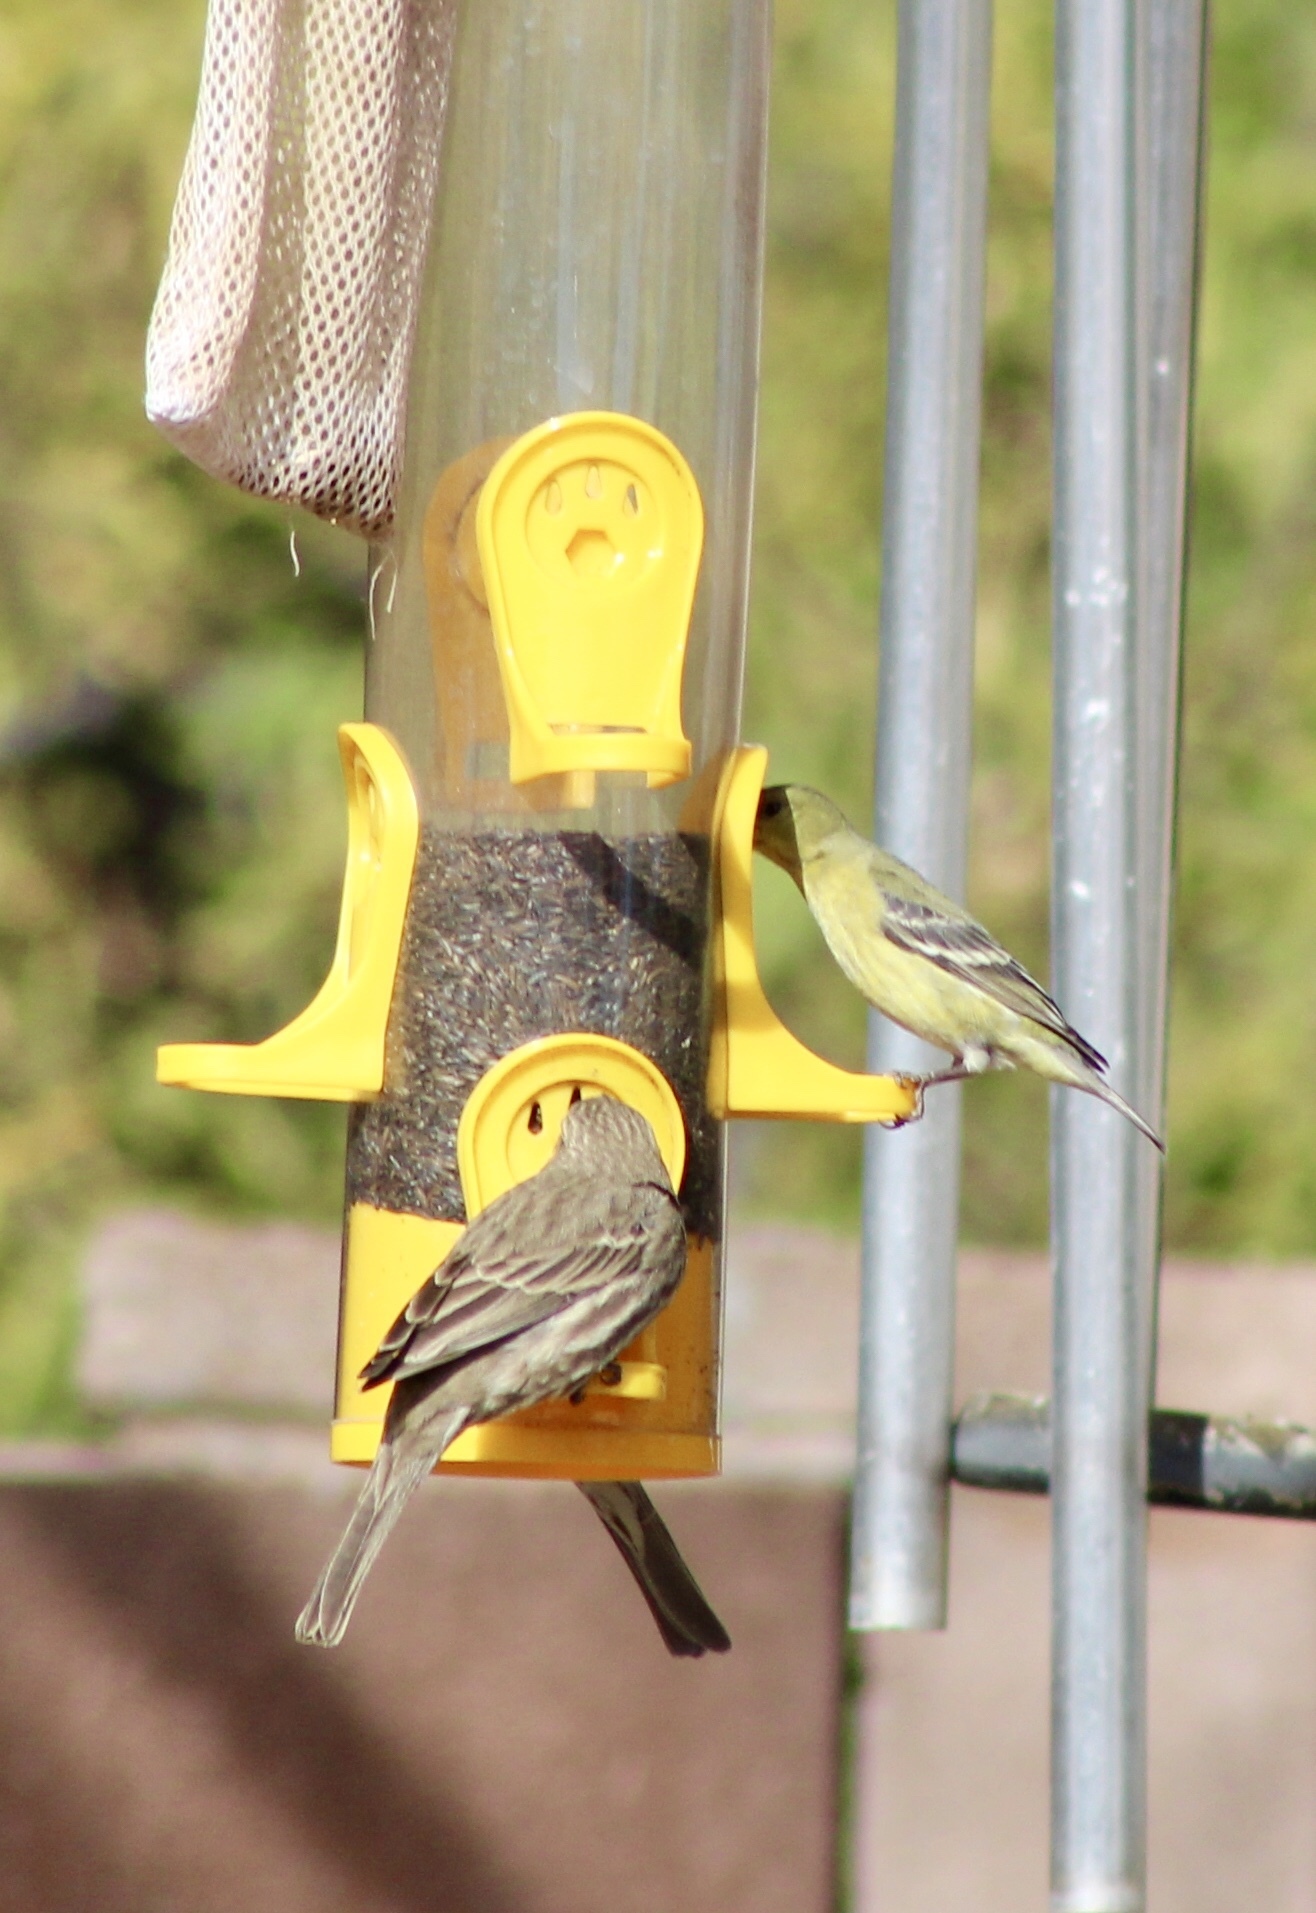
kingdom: Animalia
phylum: Chordata
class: Aves
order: Passeriformes
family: Fringillidae
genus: Spinus
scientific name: Spinus psaltria
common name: Lesser goldfinch
